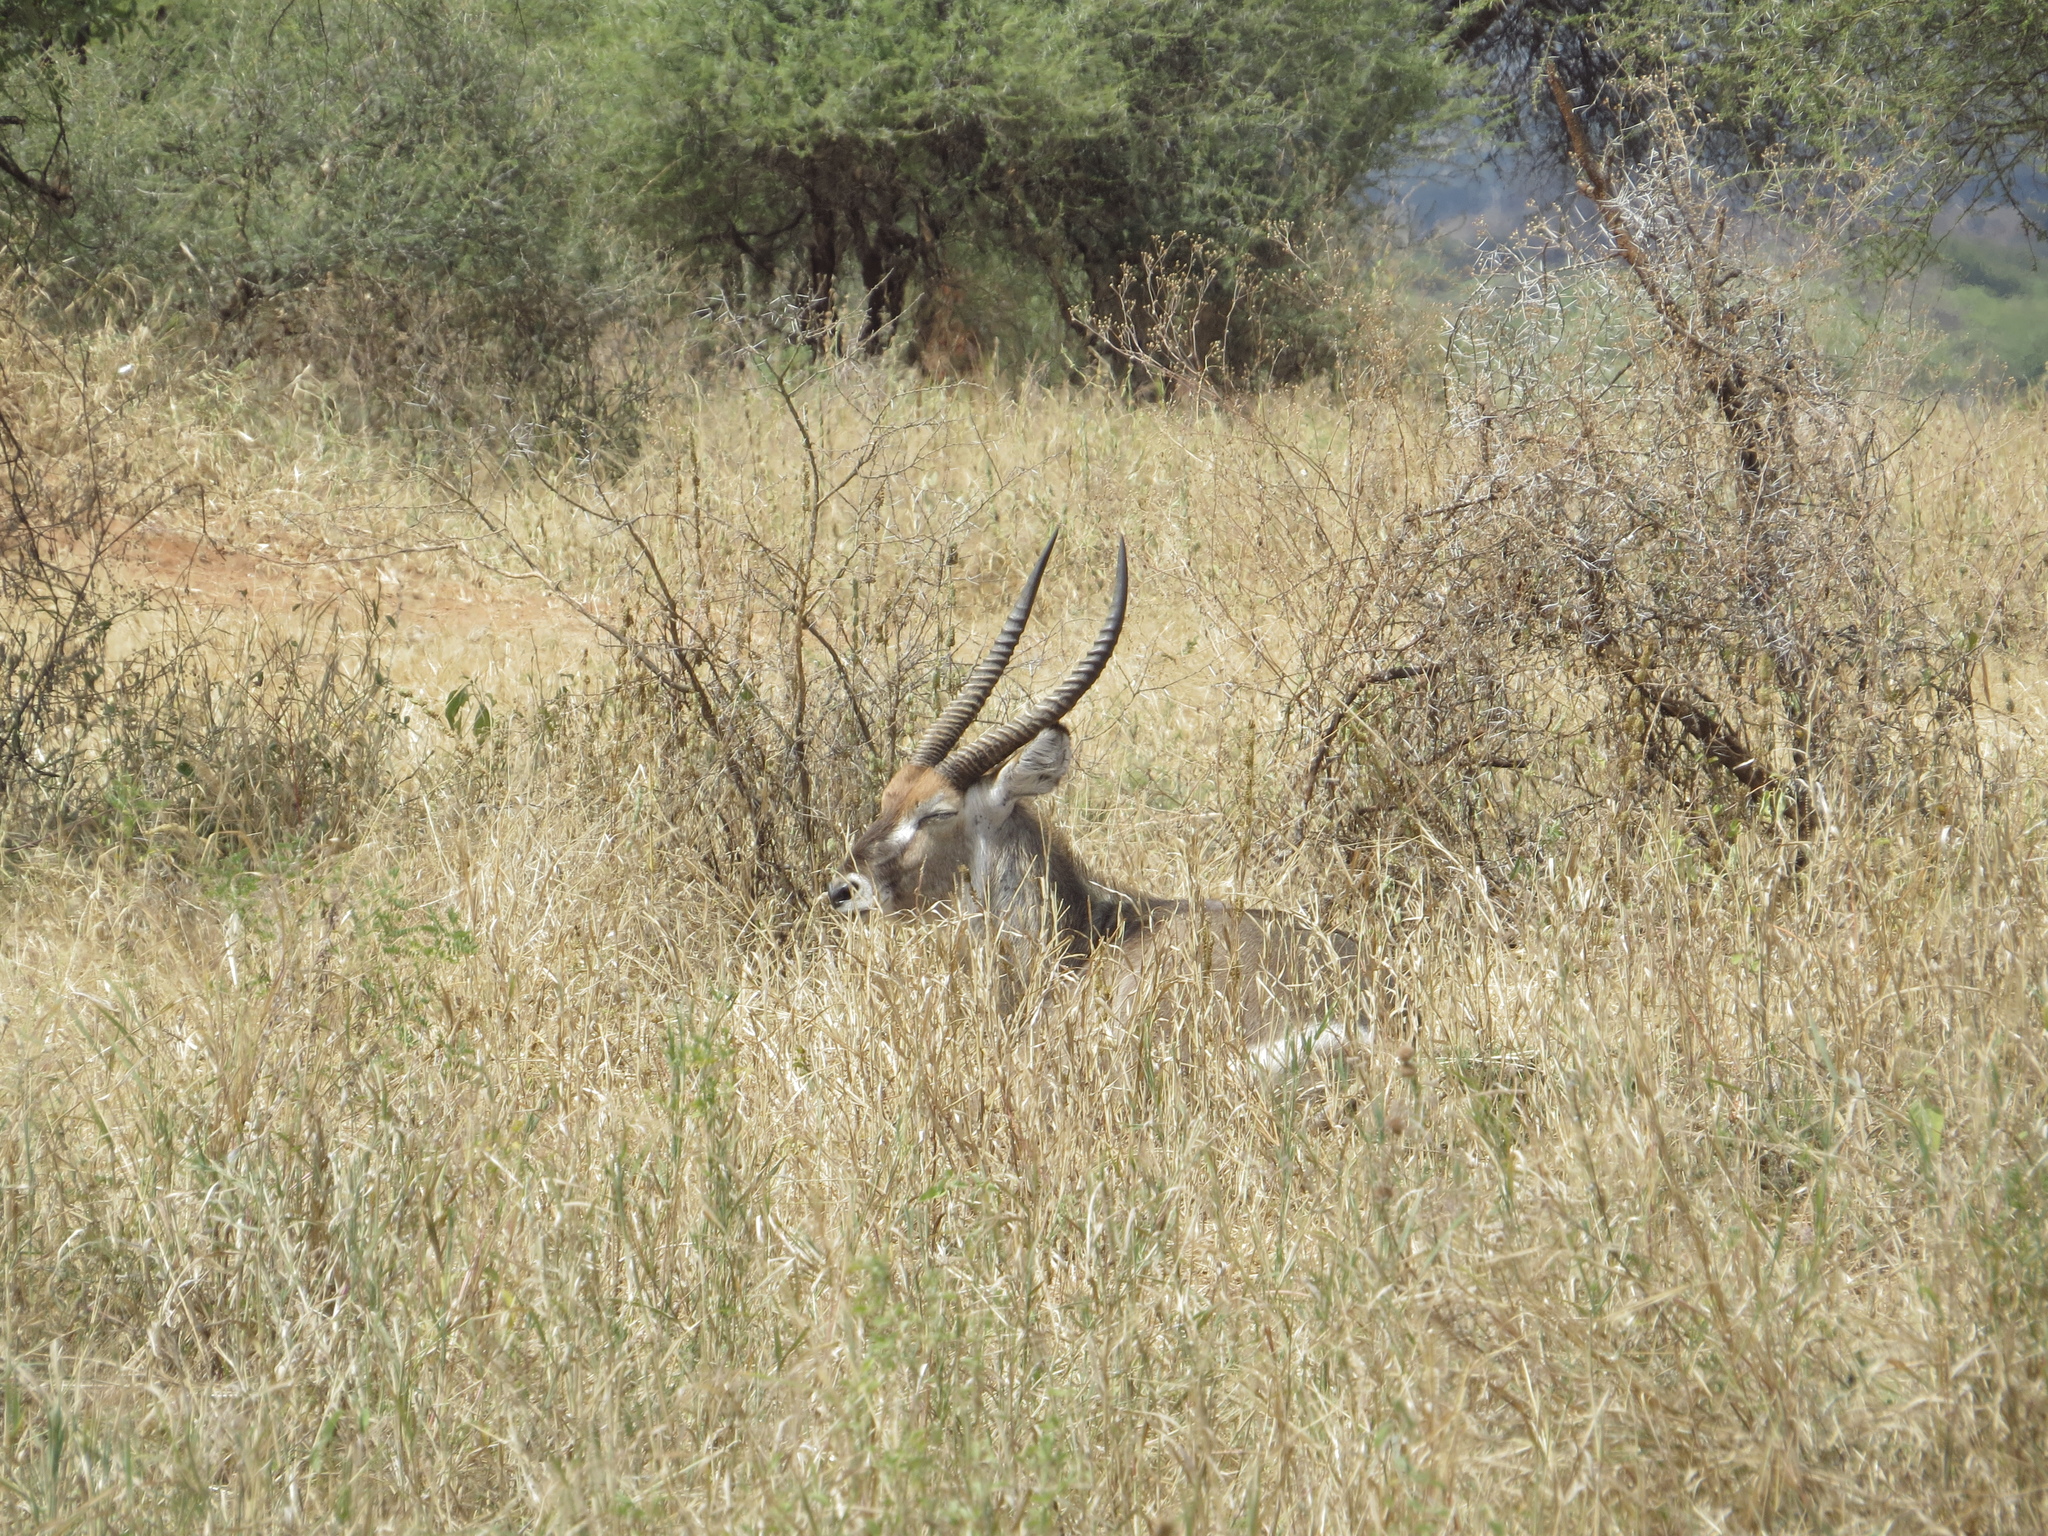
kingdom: Animalia
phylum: Chordata
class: Mammalia
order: Artiodactyla
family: Bovidae
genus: Kobus
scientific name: Kobus ellipsiprymnus
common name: Waterbuck
